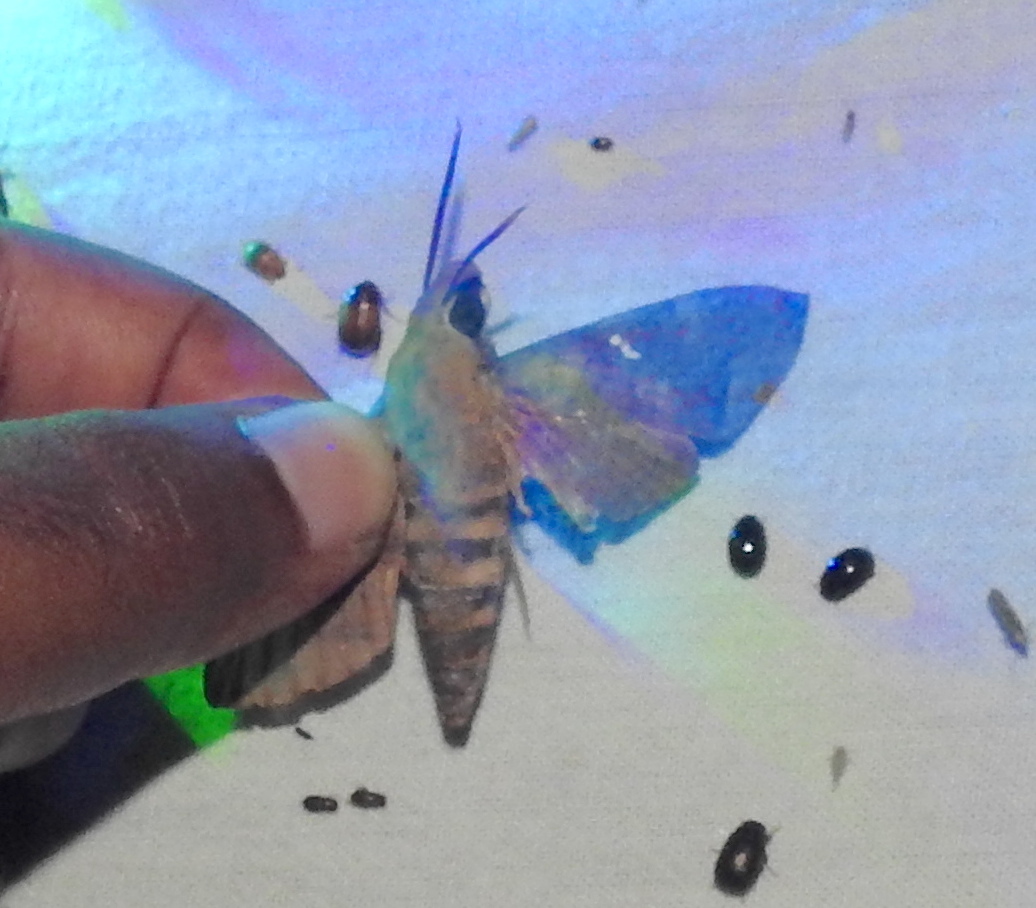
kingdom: Animalia
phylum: Arthropoda
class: Insecta
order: Lepidoptera
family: Sphingidae
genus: Nephele
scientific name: Nephele hespera
